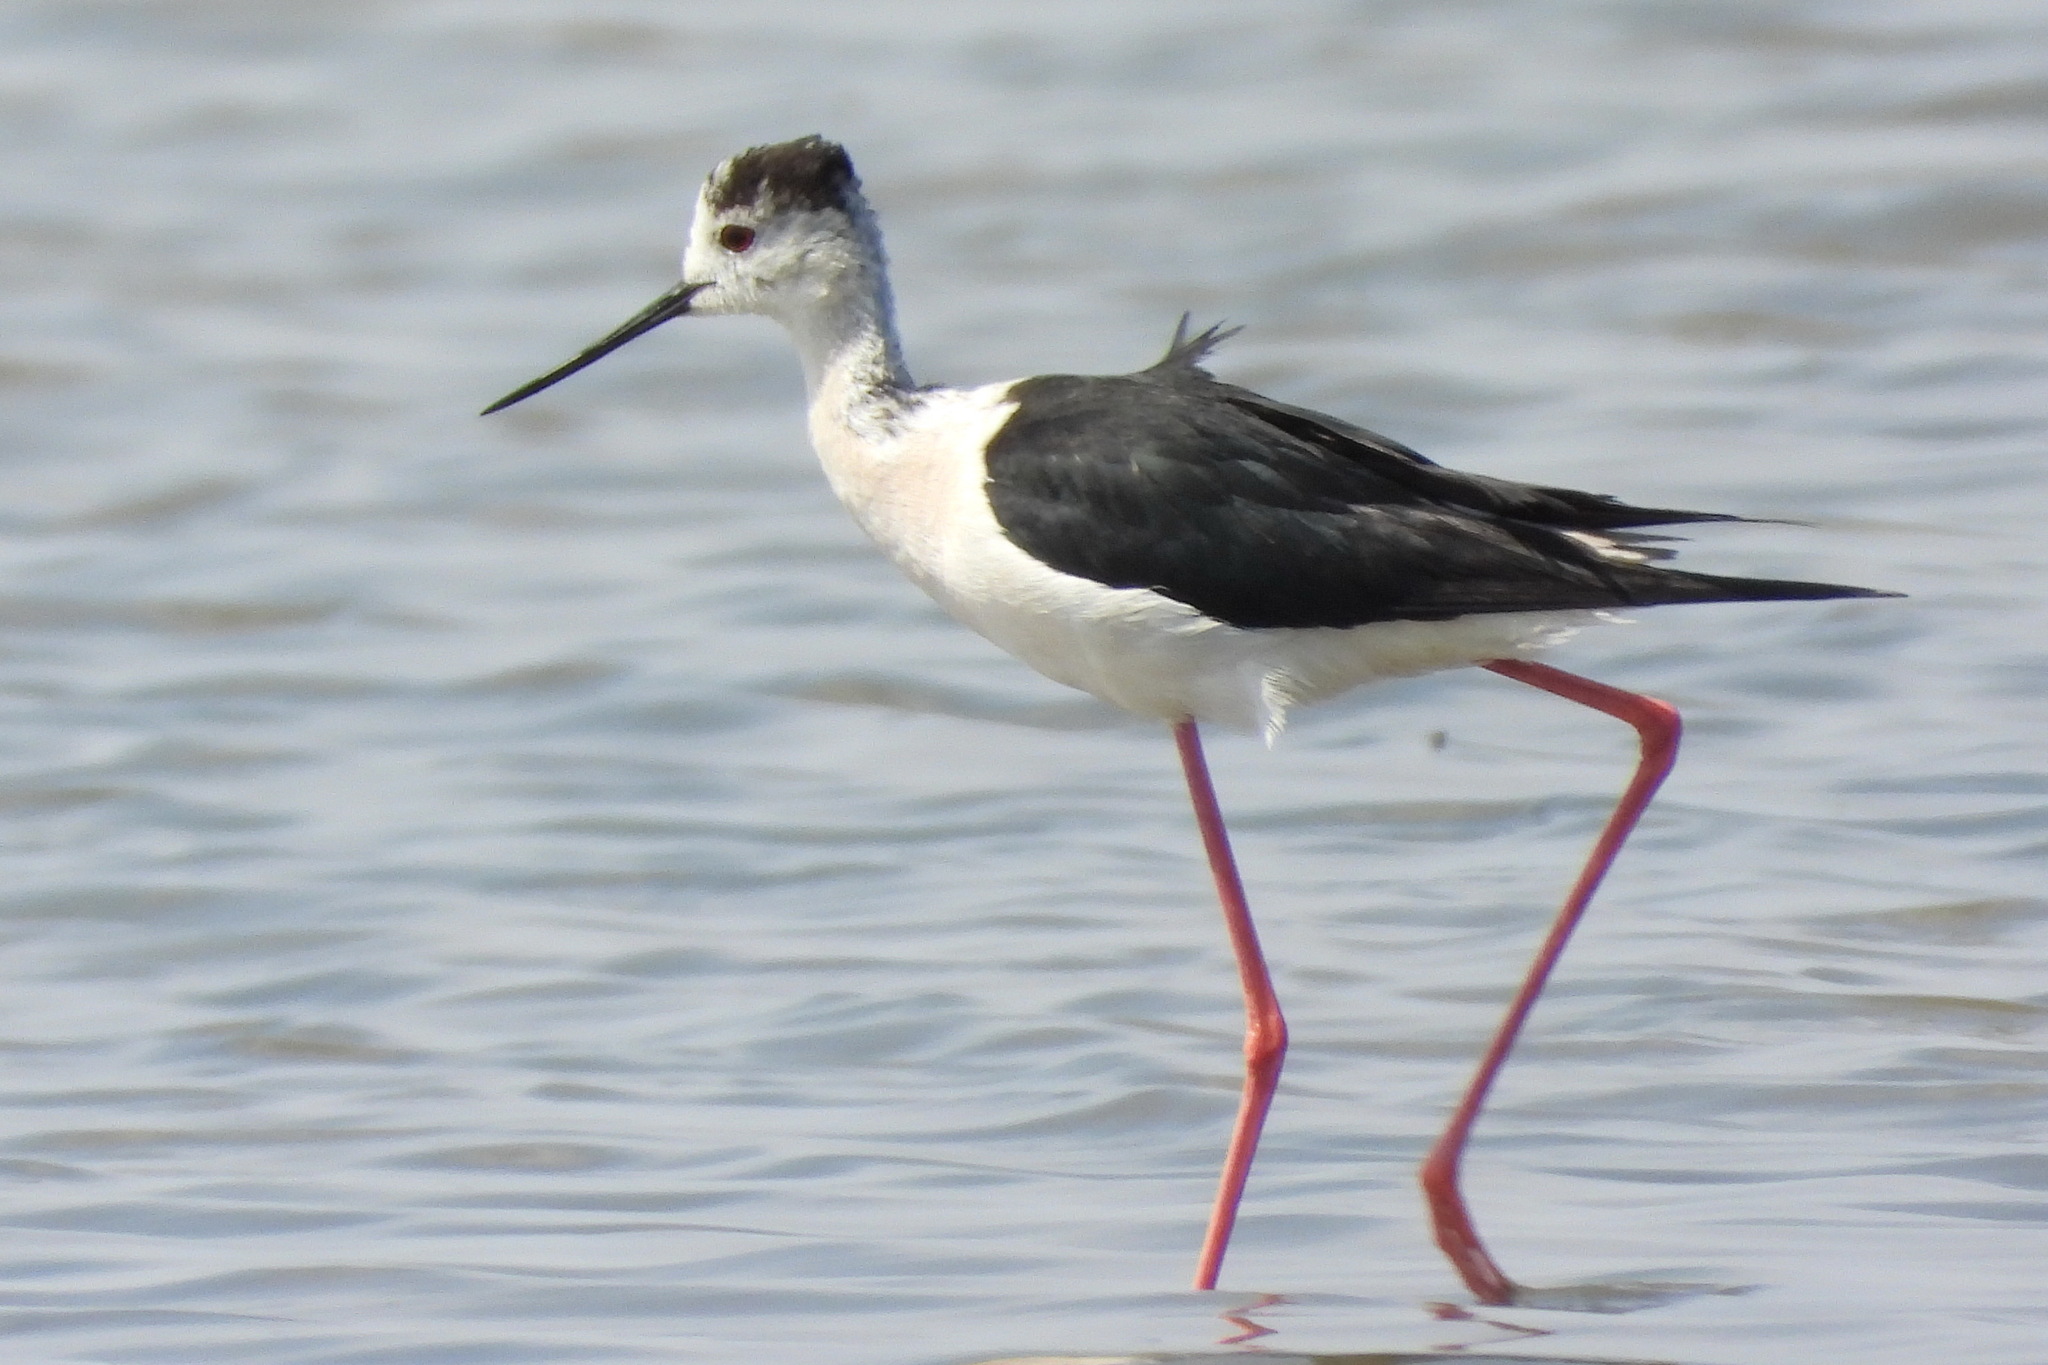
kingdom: Animalia
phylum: Chordata
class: Aves
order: Charadriiformes
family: Recurvirostridae
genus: Himantopus
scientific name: Himantopus himantopus
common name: Black-winged stilt
